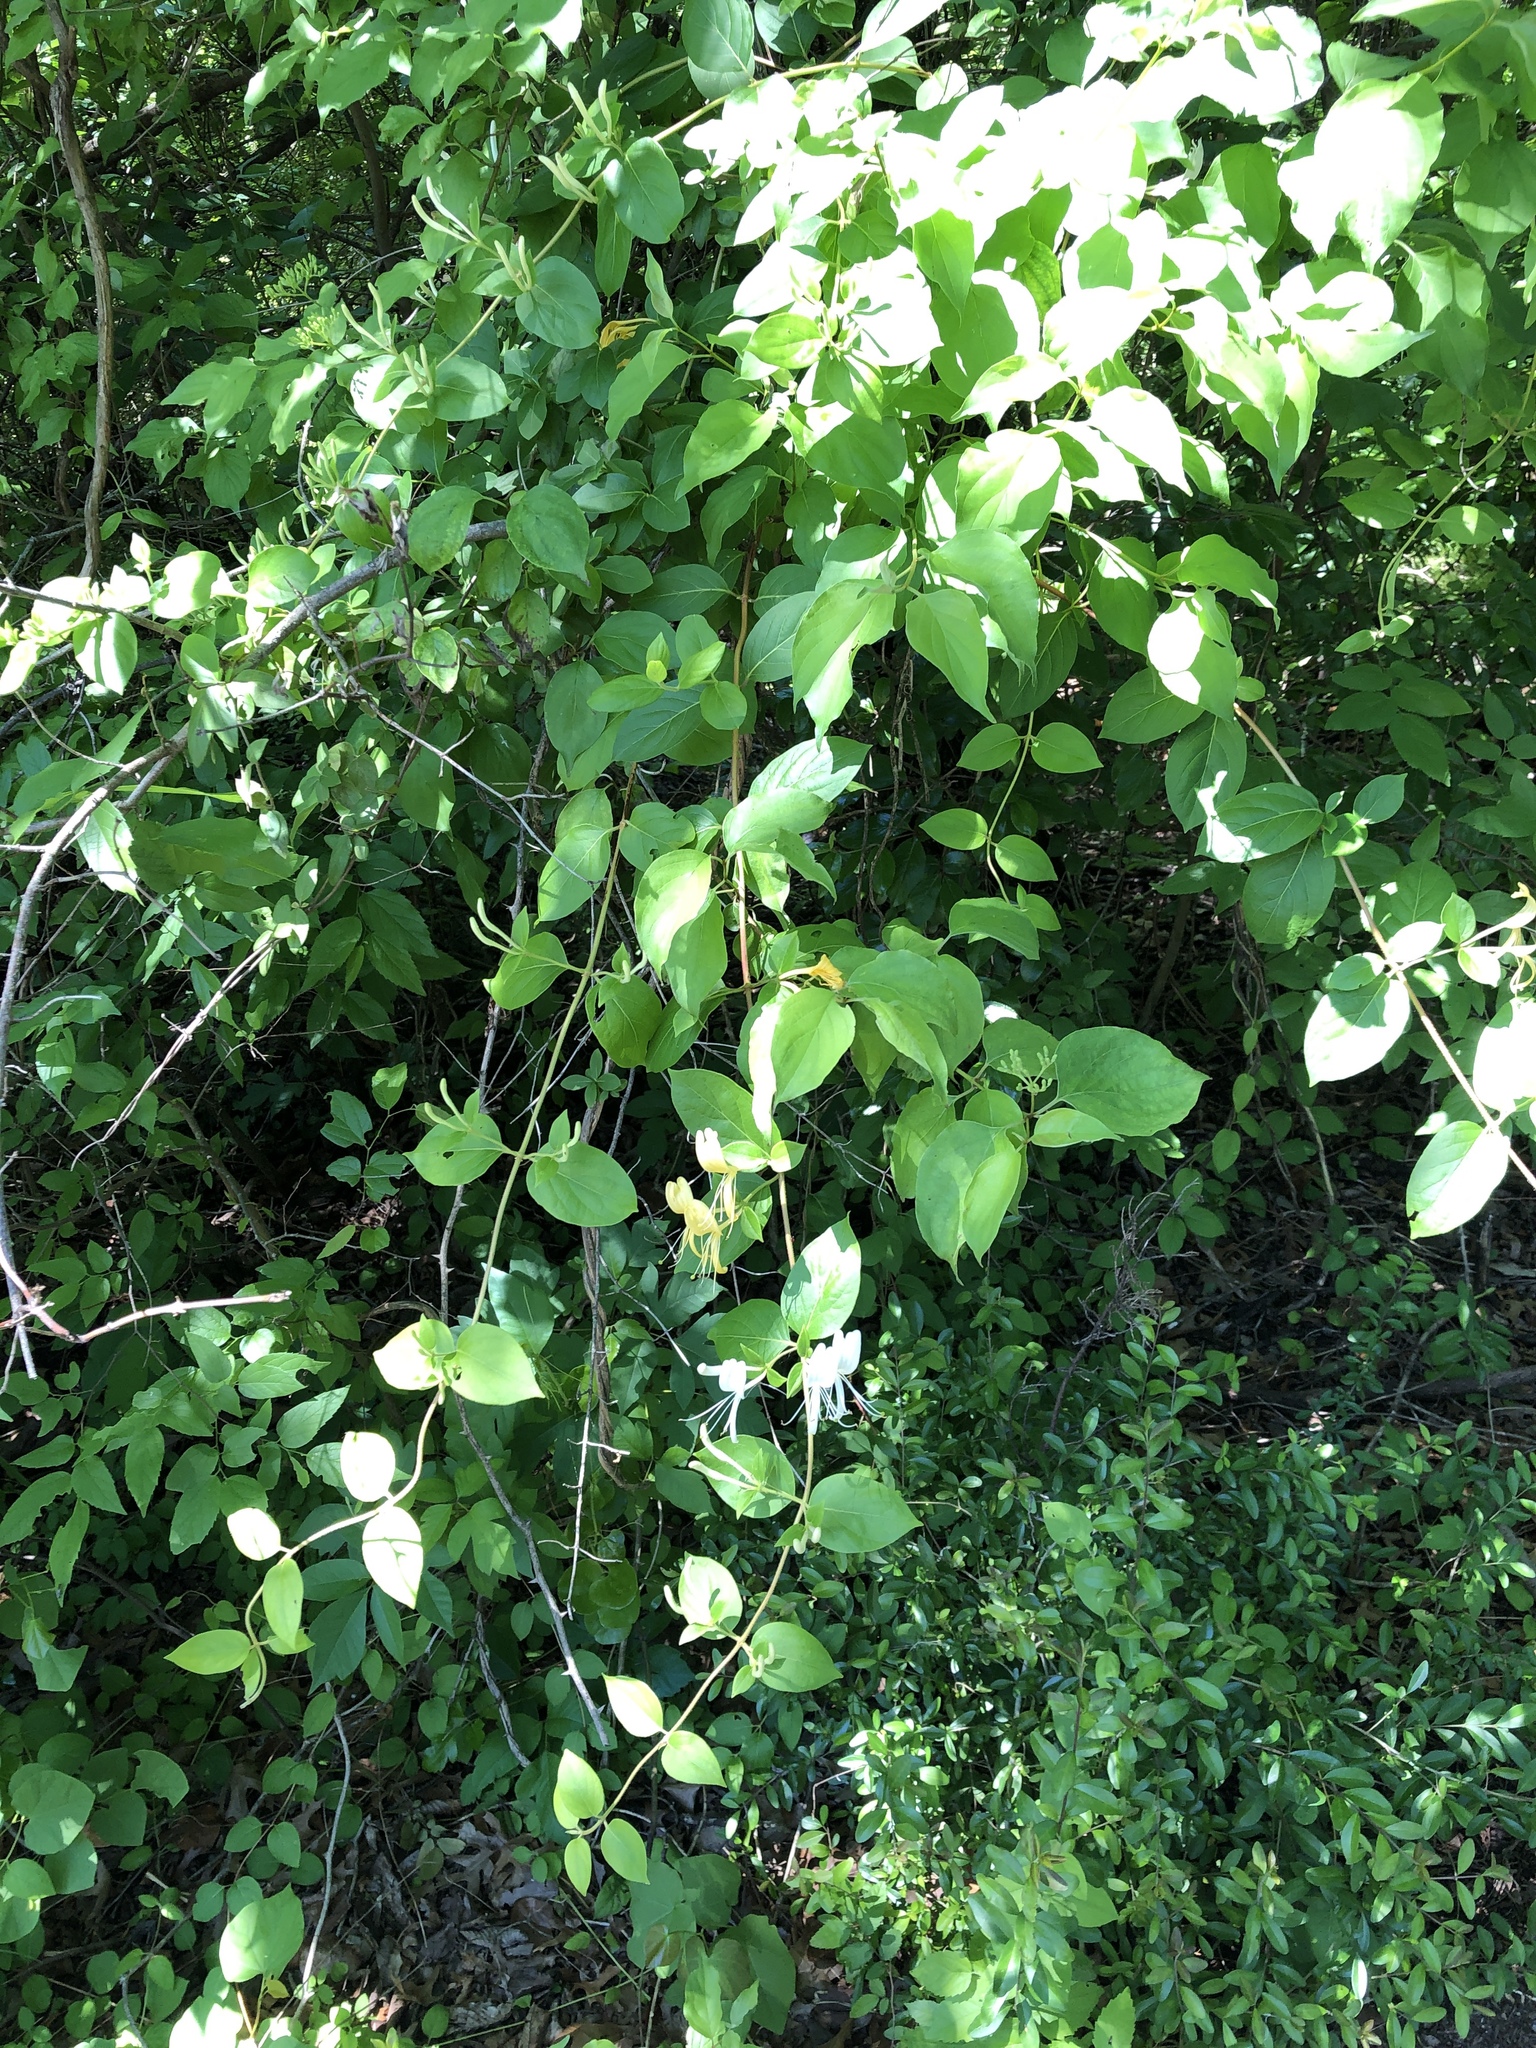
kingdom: Plantae
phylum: Tracheophyta
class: Magnoliopsida
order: Dipsacales
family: Caprifoliaceae
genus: Lonicera
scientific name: Lonicera japonica
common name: Japanese honeysuckle
